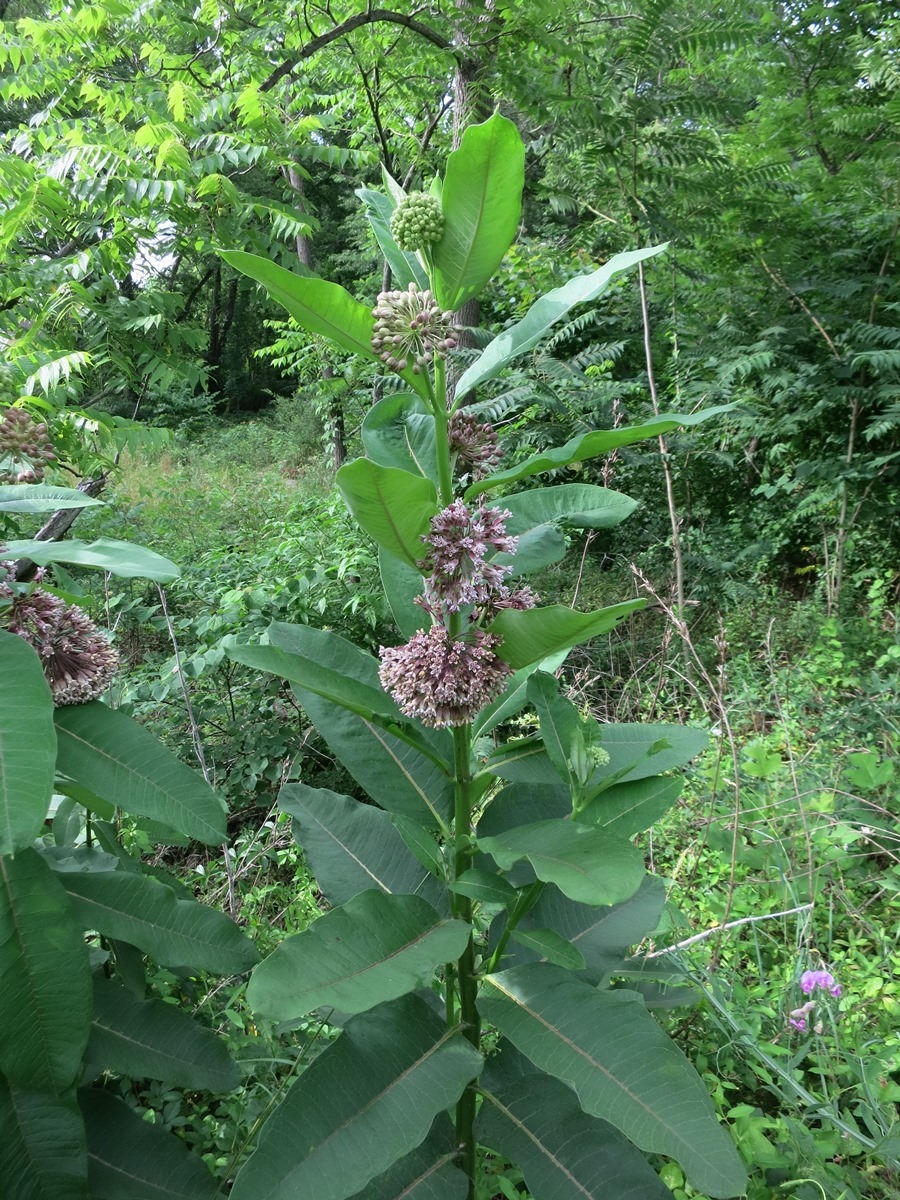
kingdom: Plantae
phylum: Tracheophyta
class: Magnoliopsida
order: Gentianales
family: Apocynaceae
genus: Asclepias
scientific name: Asclepias syriaca
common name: Common milkweed
